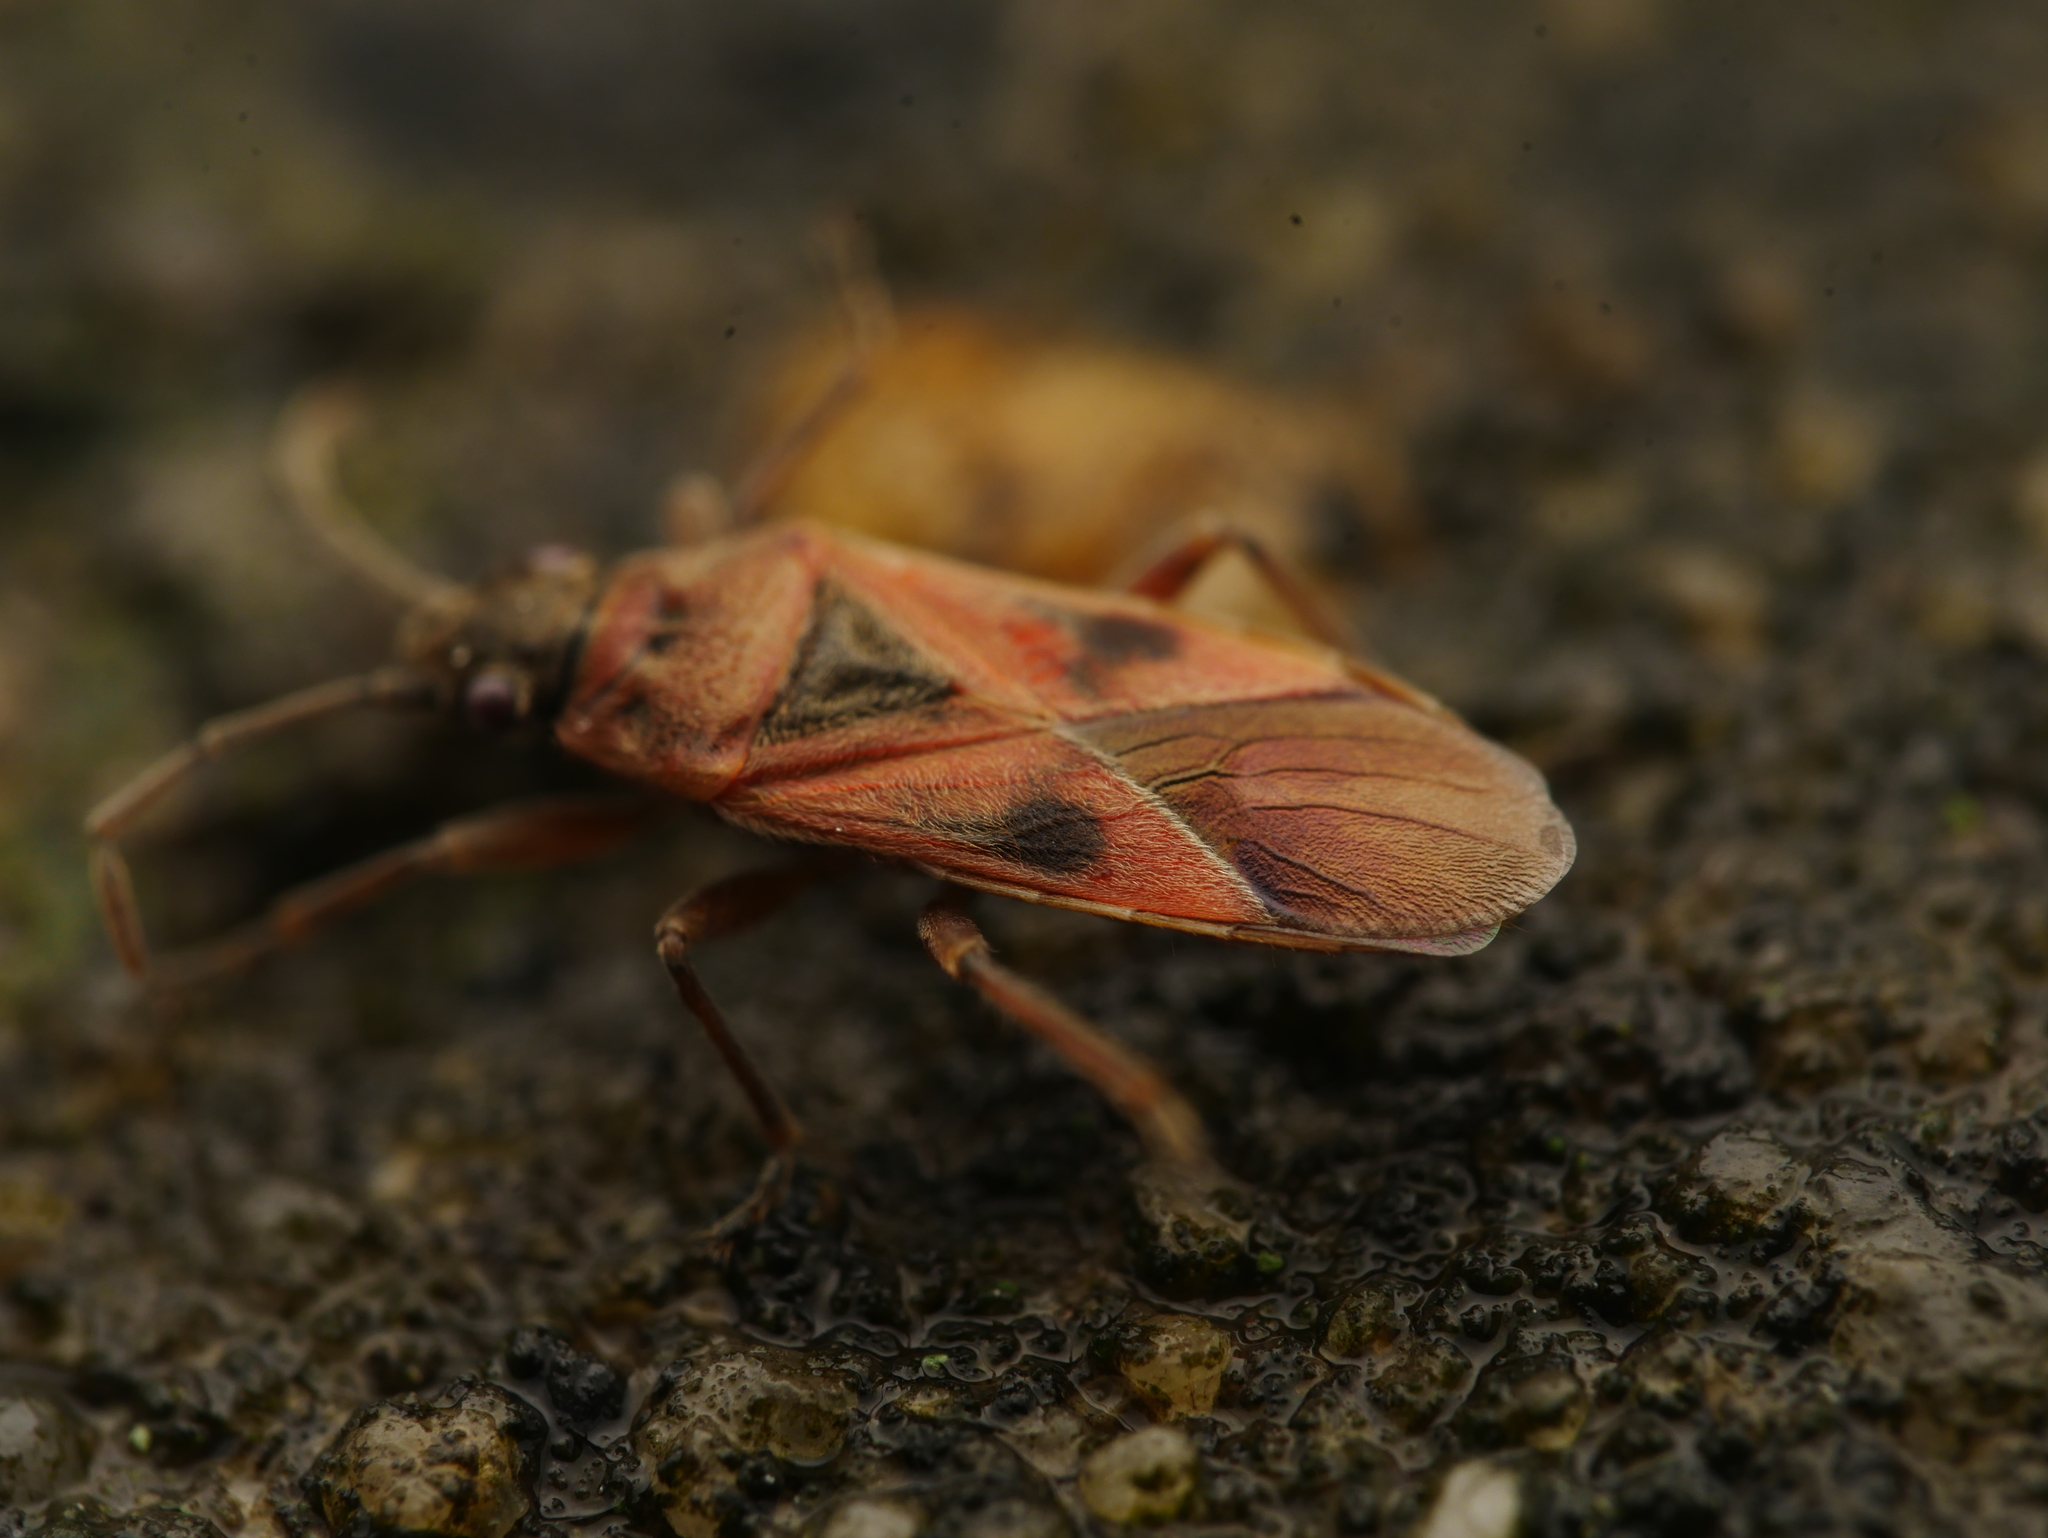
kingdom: Animalia
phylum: Arthropoda
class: Insecta
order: Hemiptera
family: Lygaeidae
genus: Arocatus
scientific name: Arocatus roeselii
